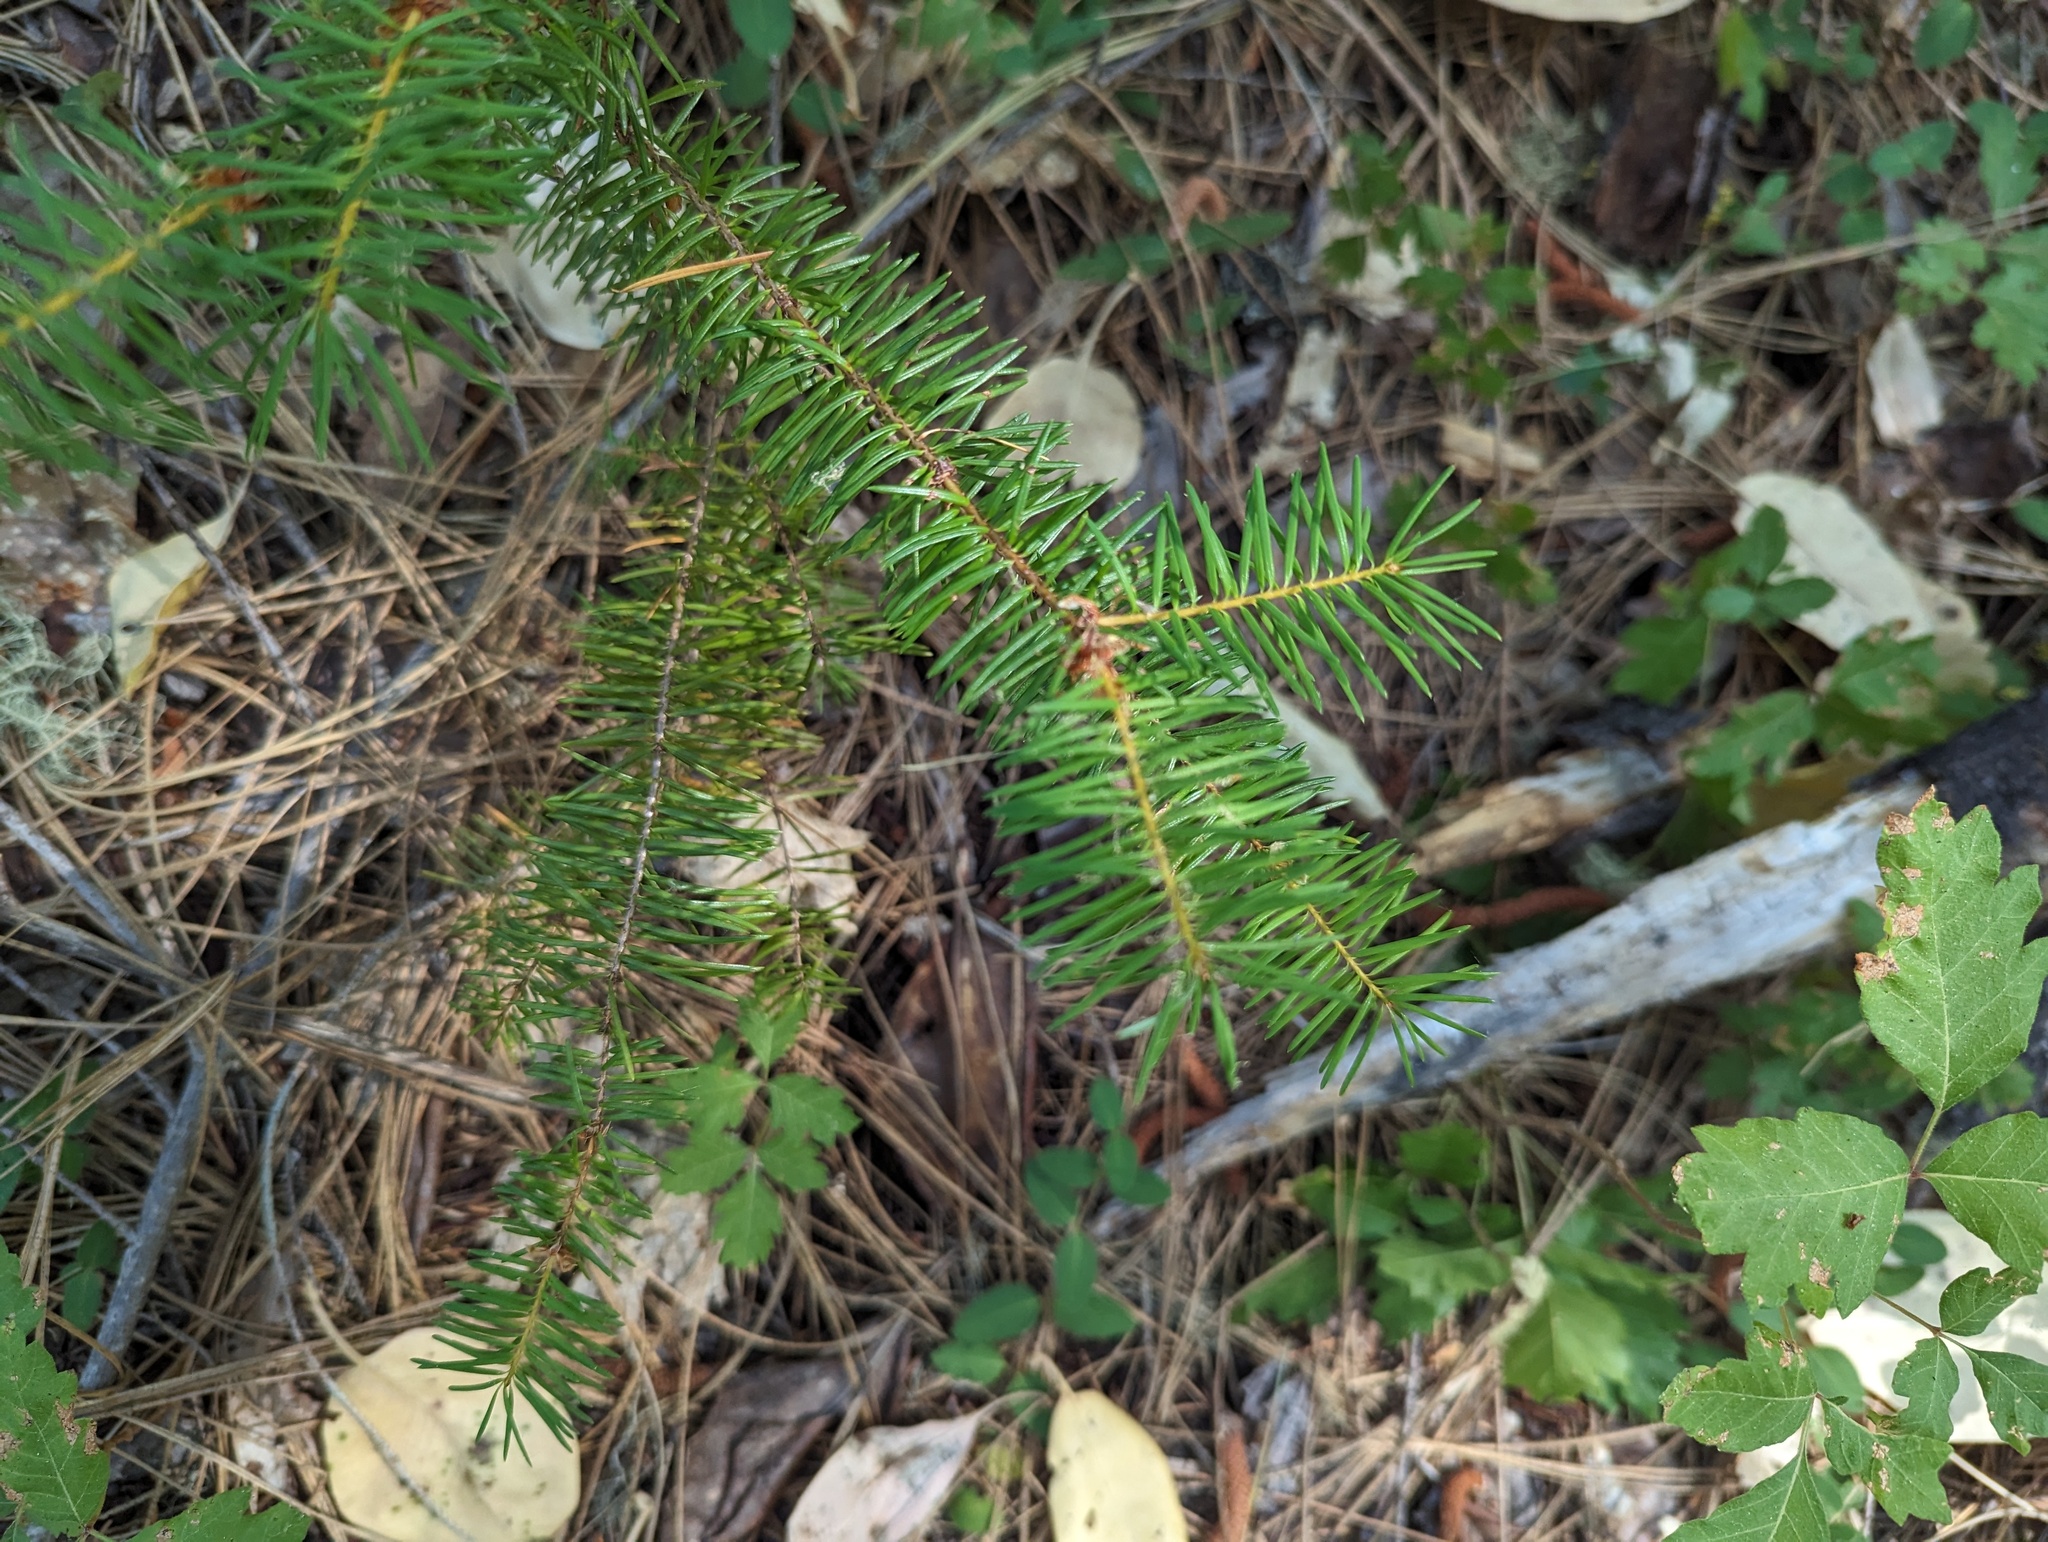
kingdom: Plantae
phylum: Tracheophyta
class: Pinopsida
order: Pinales
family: Pinaceae
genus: Pseudotsuga
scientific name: Pseudotsuga menziesii
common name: Douglas fir
